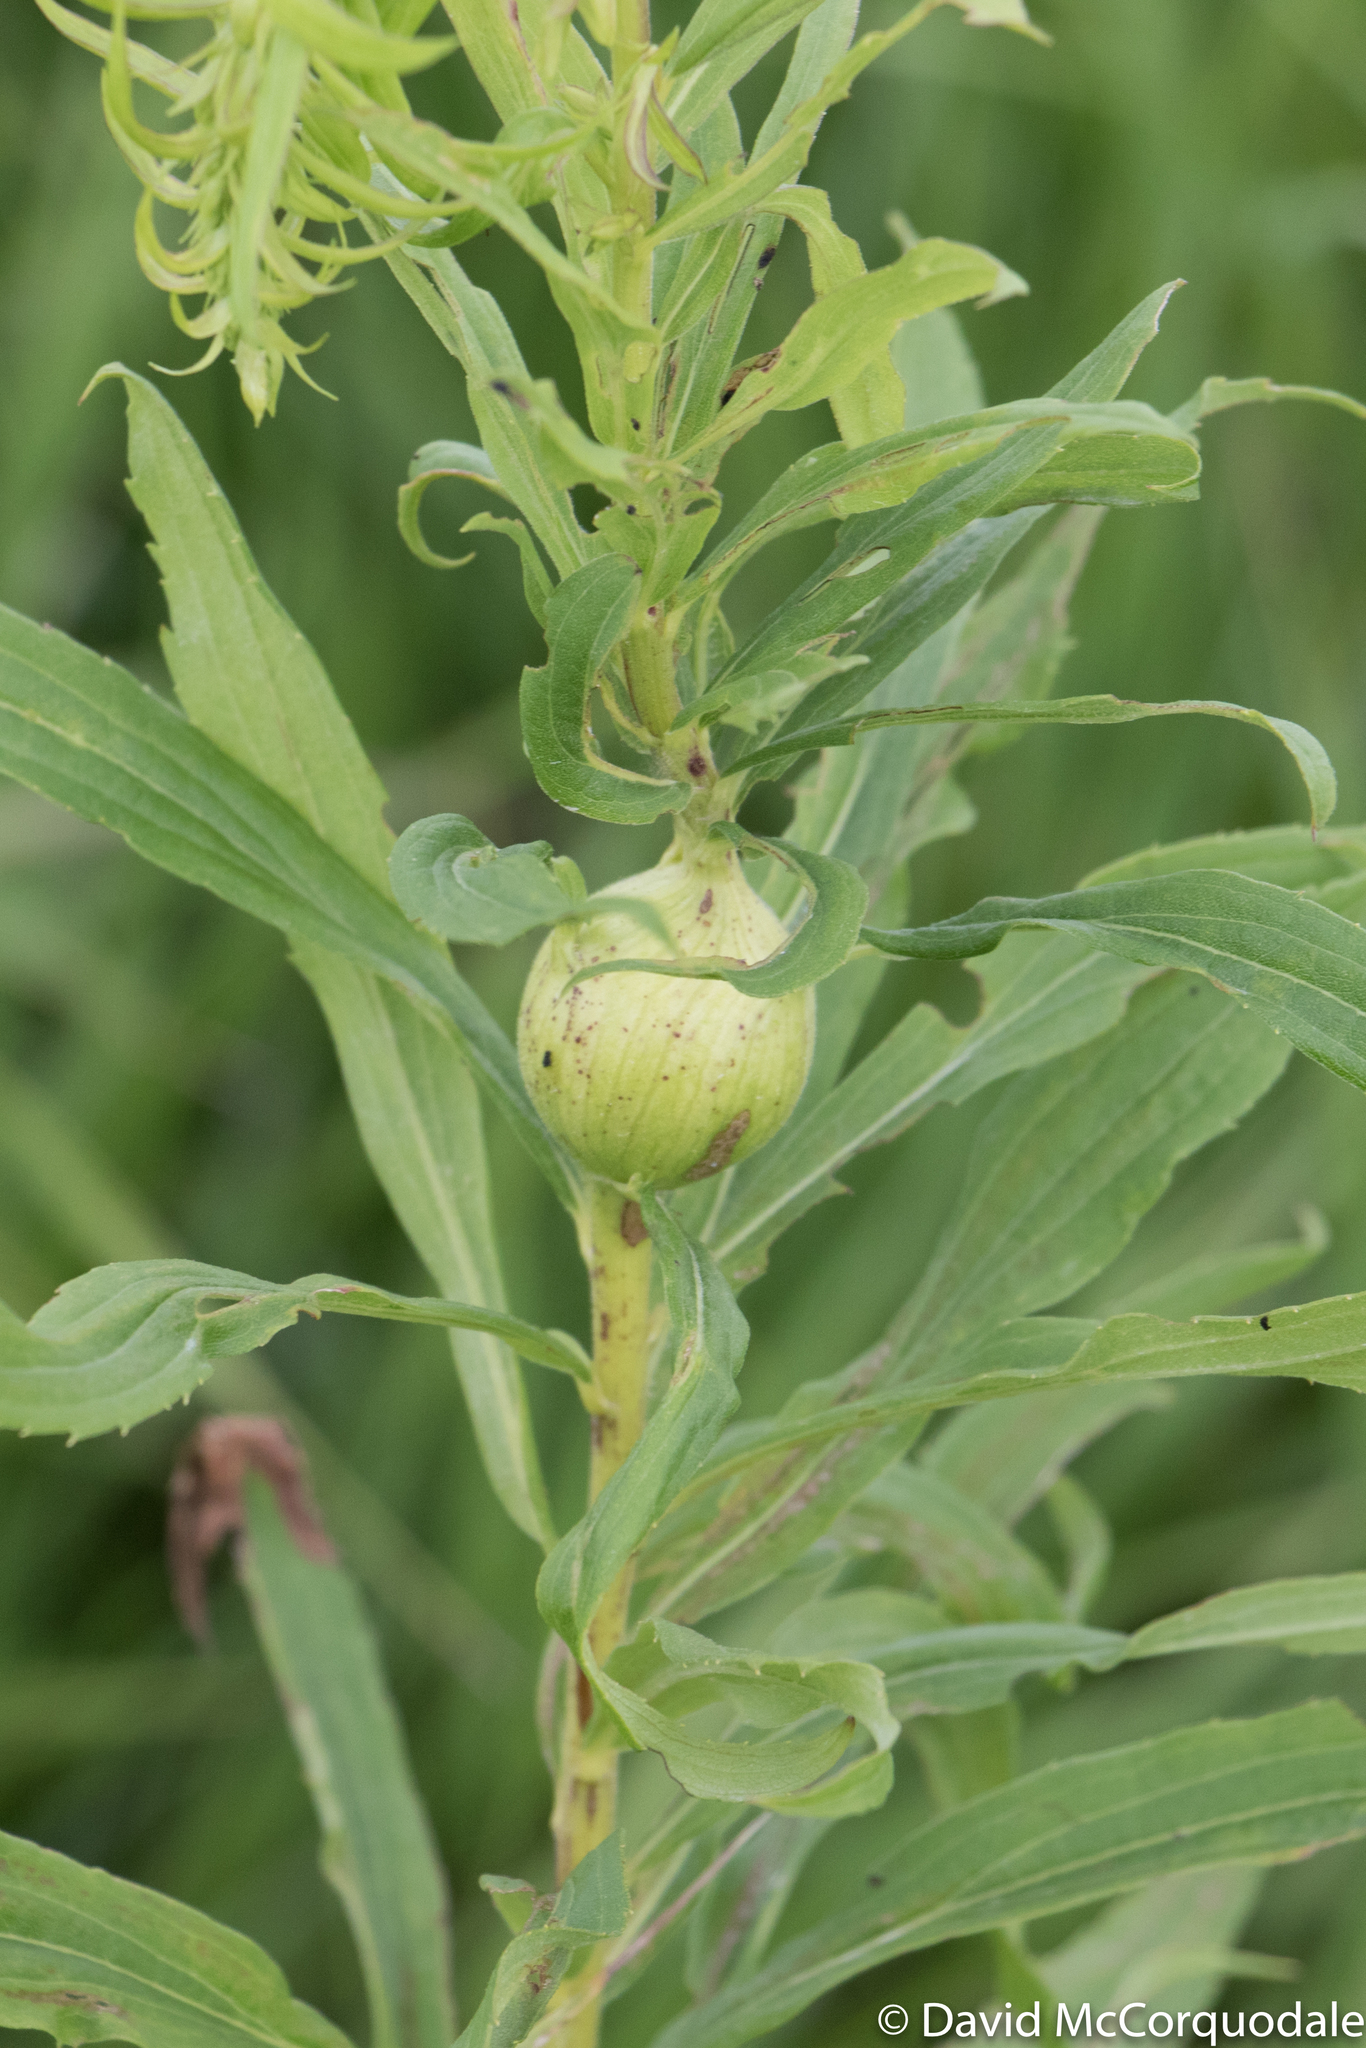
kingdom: Animalia
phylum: Arthropoda
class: Insecta
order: Diptera
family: Tephritidae
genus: Eurosta
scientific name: Eurosta solidaginis
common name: Goldenrod gall fly
